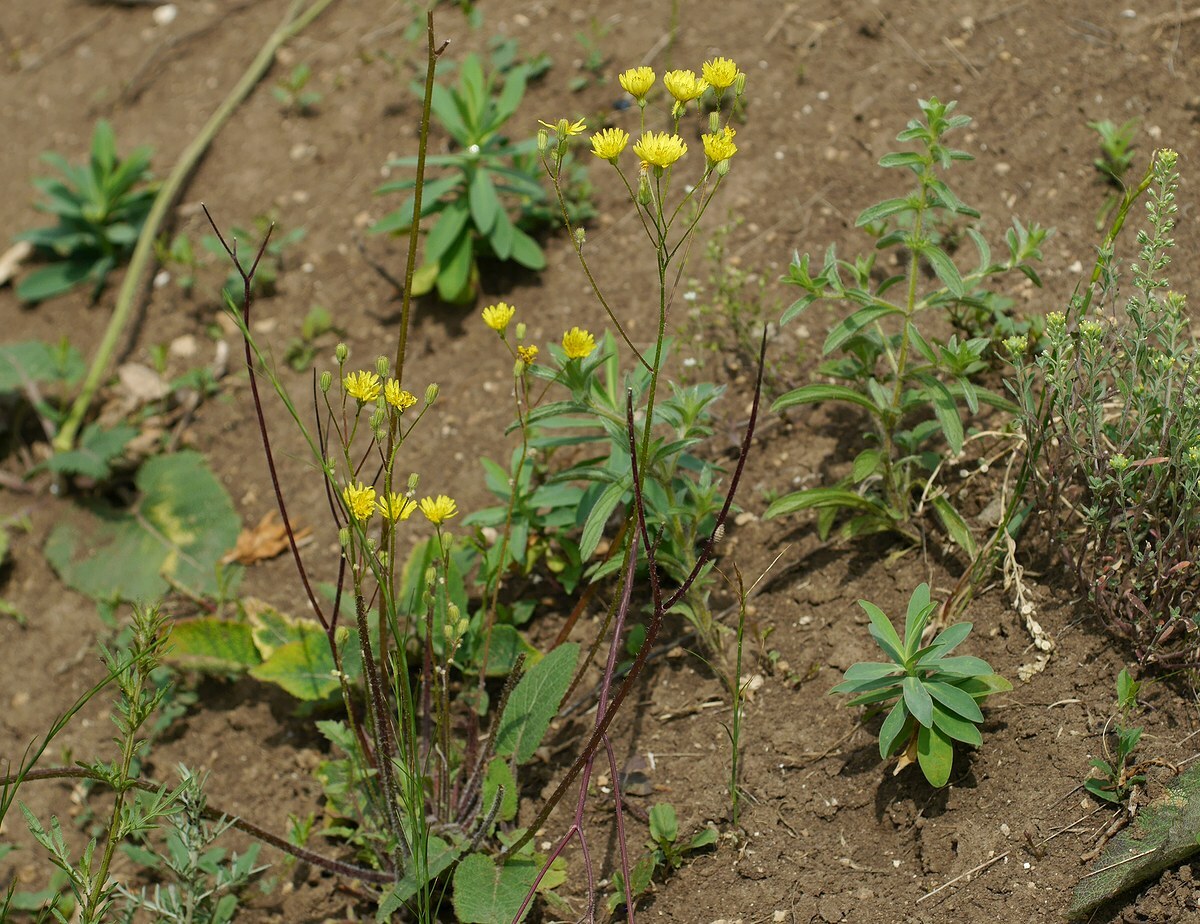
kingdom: Plantae
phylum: Tracheophyta
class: Magnoliopsida
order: Asterales
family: Asteraceae
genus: Crepis
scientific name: Crepis sancta
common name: Hawk's-beard
